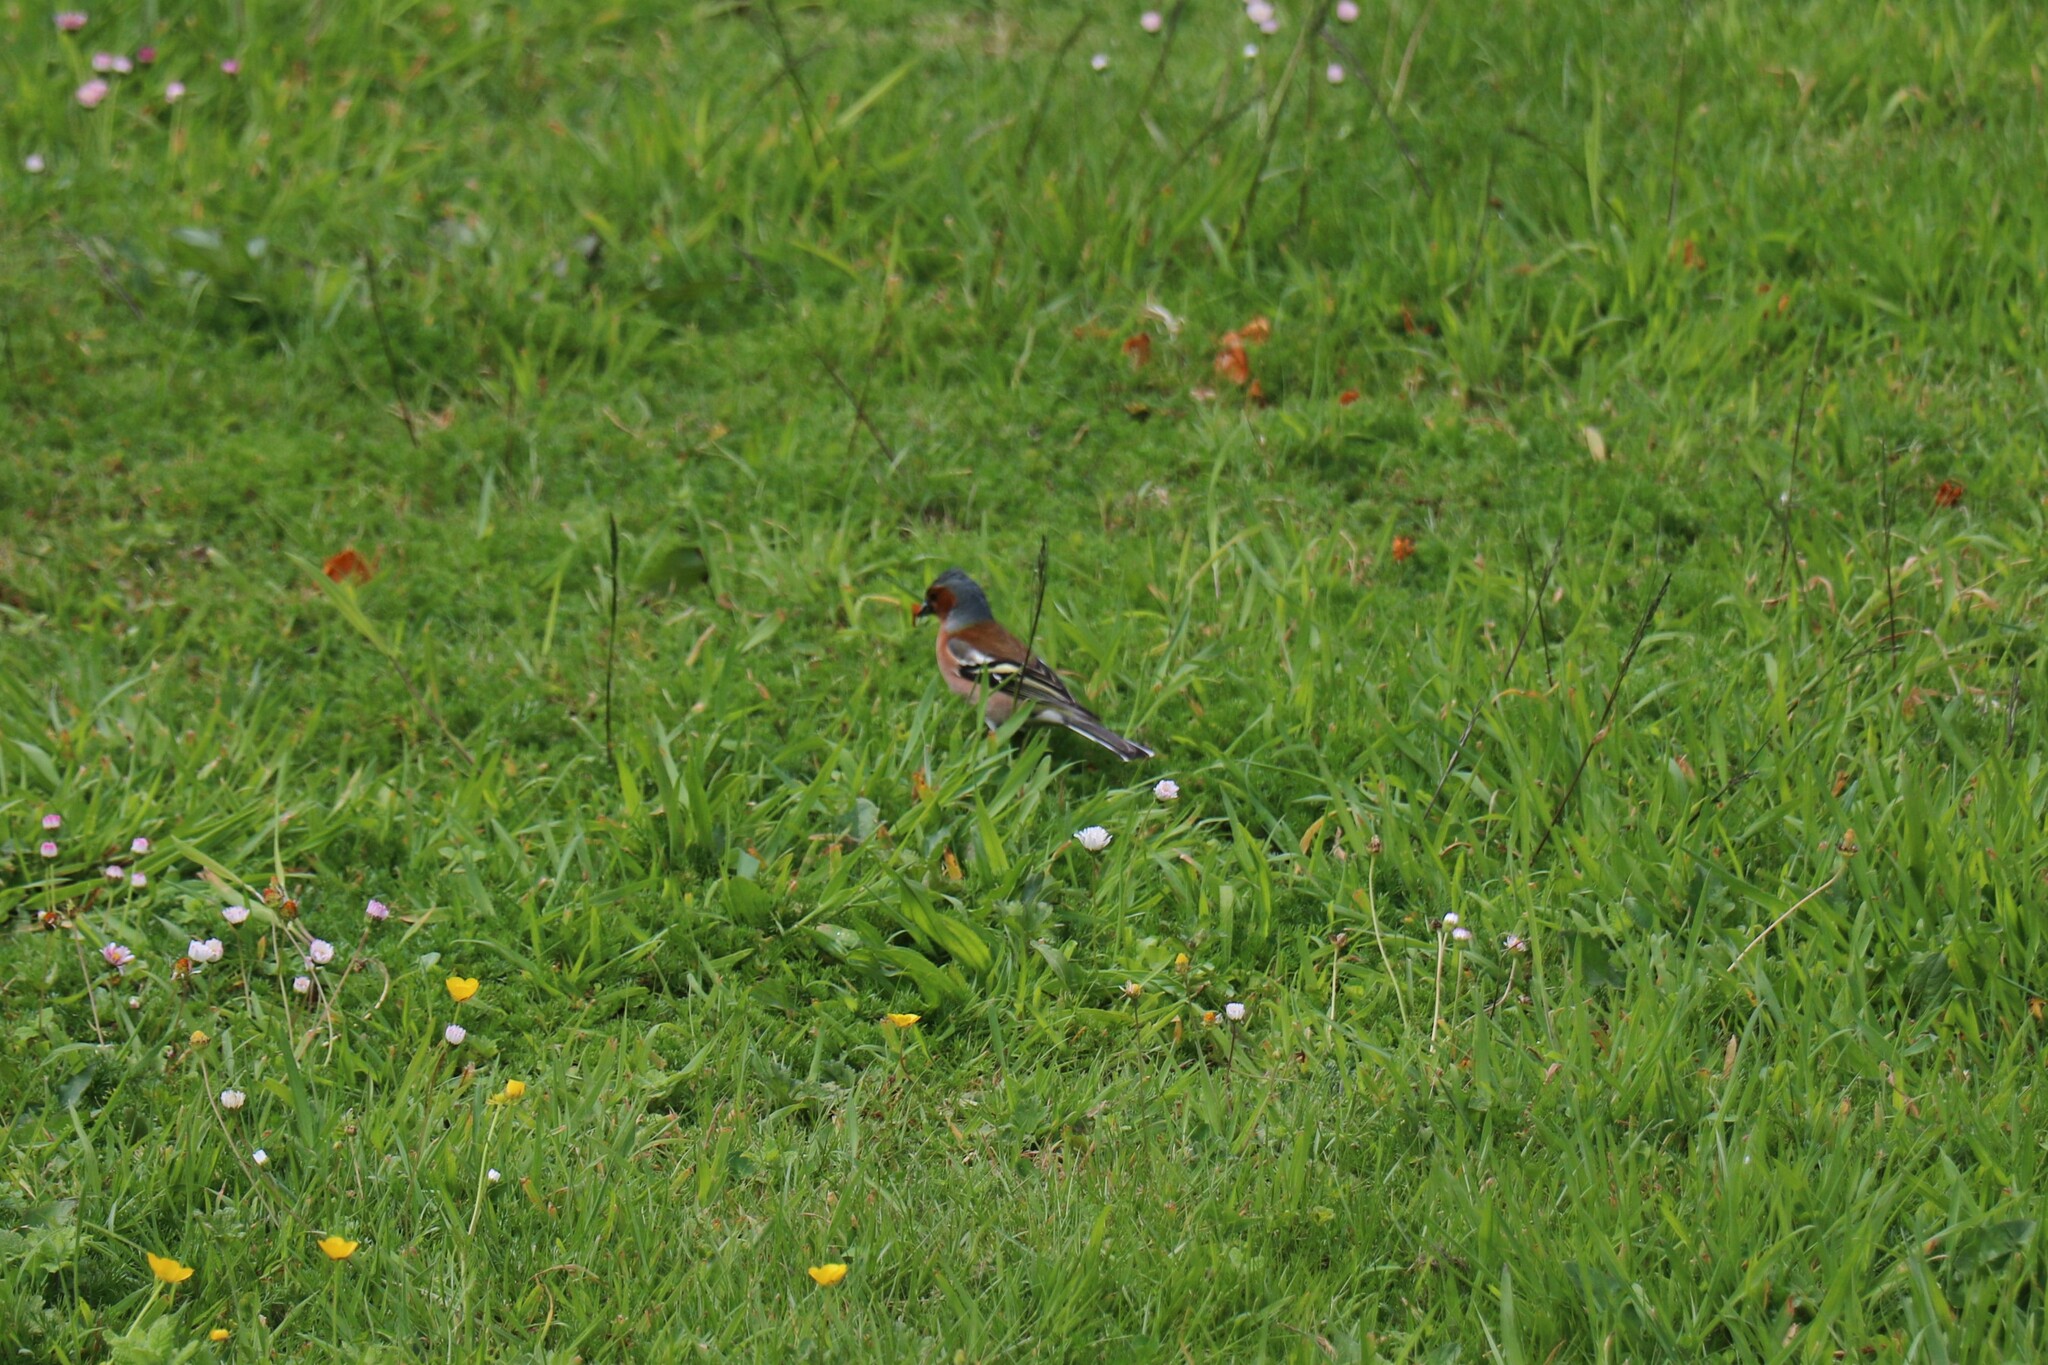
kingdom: Animalia
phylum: Chordata
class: Aves
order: Passeriformes
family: Fringillidae
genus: Fringilla
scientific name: Fringilla coelebs
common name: Common chaffinch
